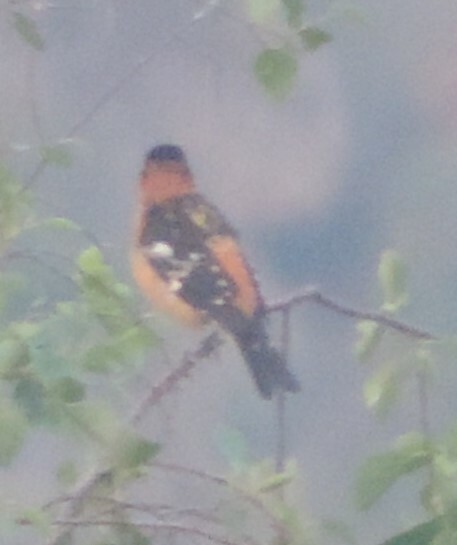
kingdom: Animalia
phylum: Chordata
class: Aves
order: Passeriformes
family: Cardinalidae
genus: Pheucticus
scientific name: Pheucticus melanocephalus
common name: Black-headed grosbeak
